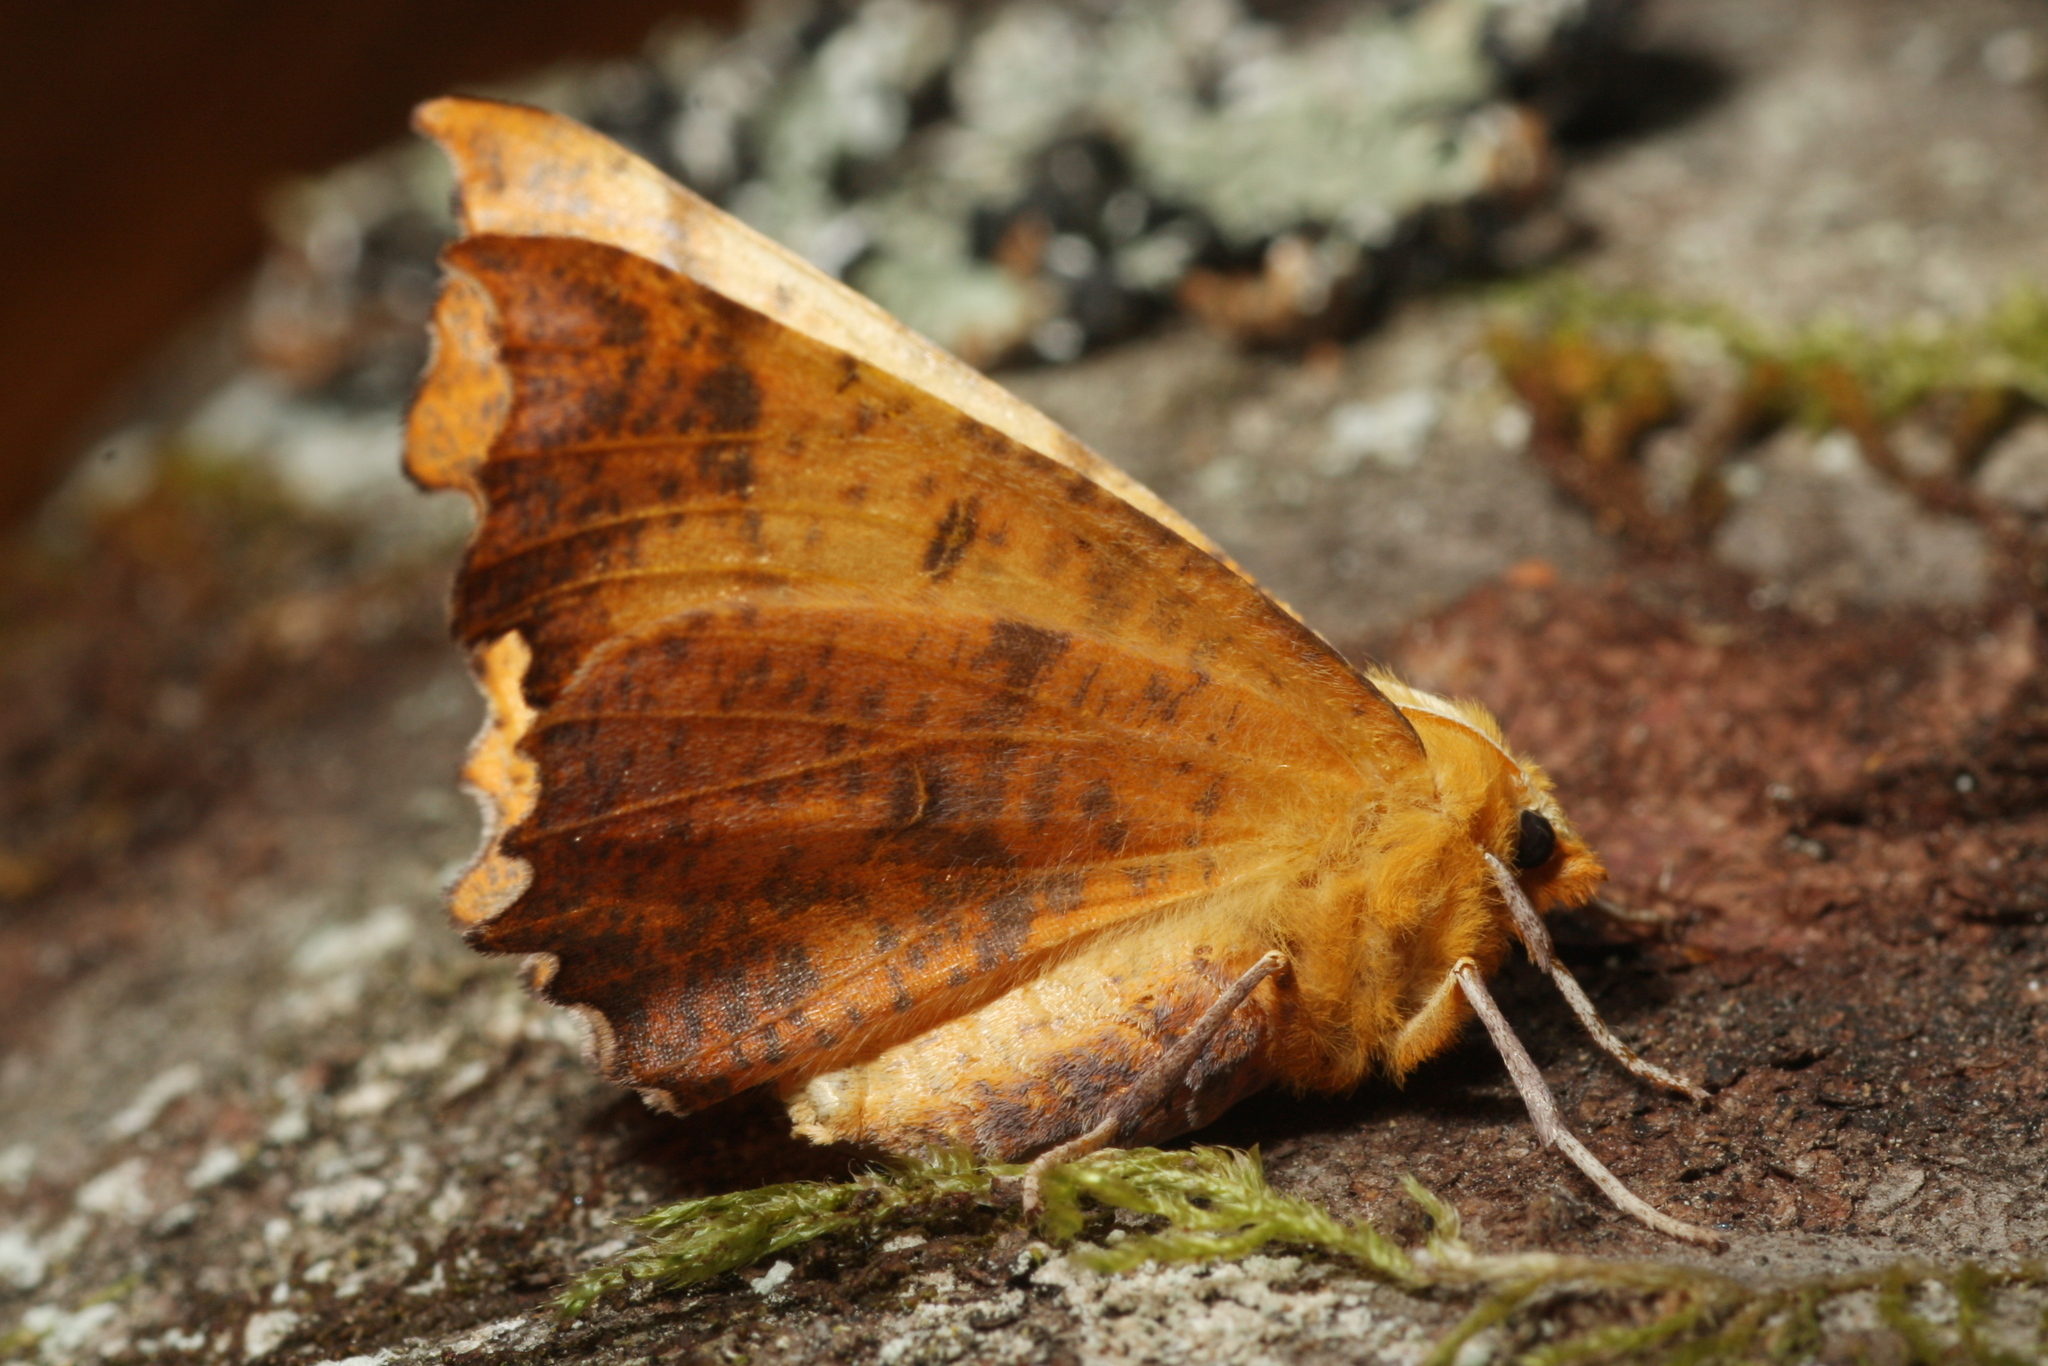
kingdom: Animalia
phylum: Arthropoda
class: Insecta
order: Lepidoptera
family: Geometridae
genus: Ennomos
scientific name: Ennomos autumnaria
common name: Large thorn
